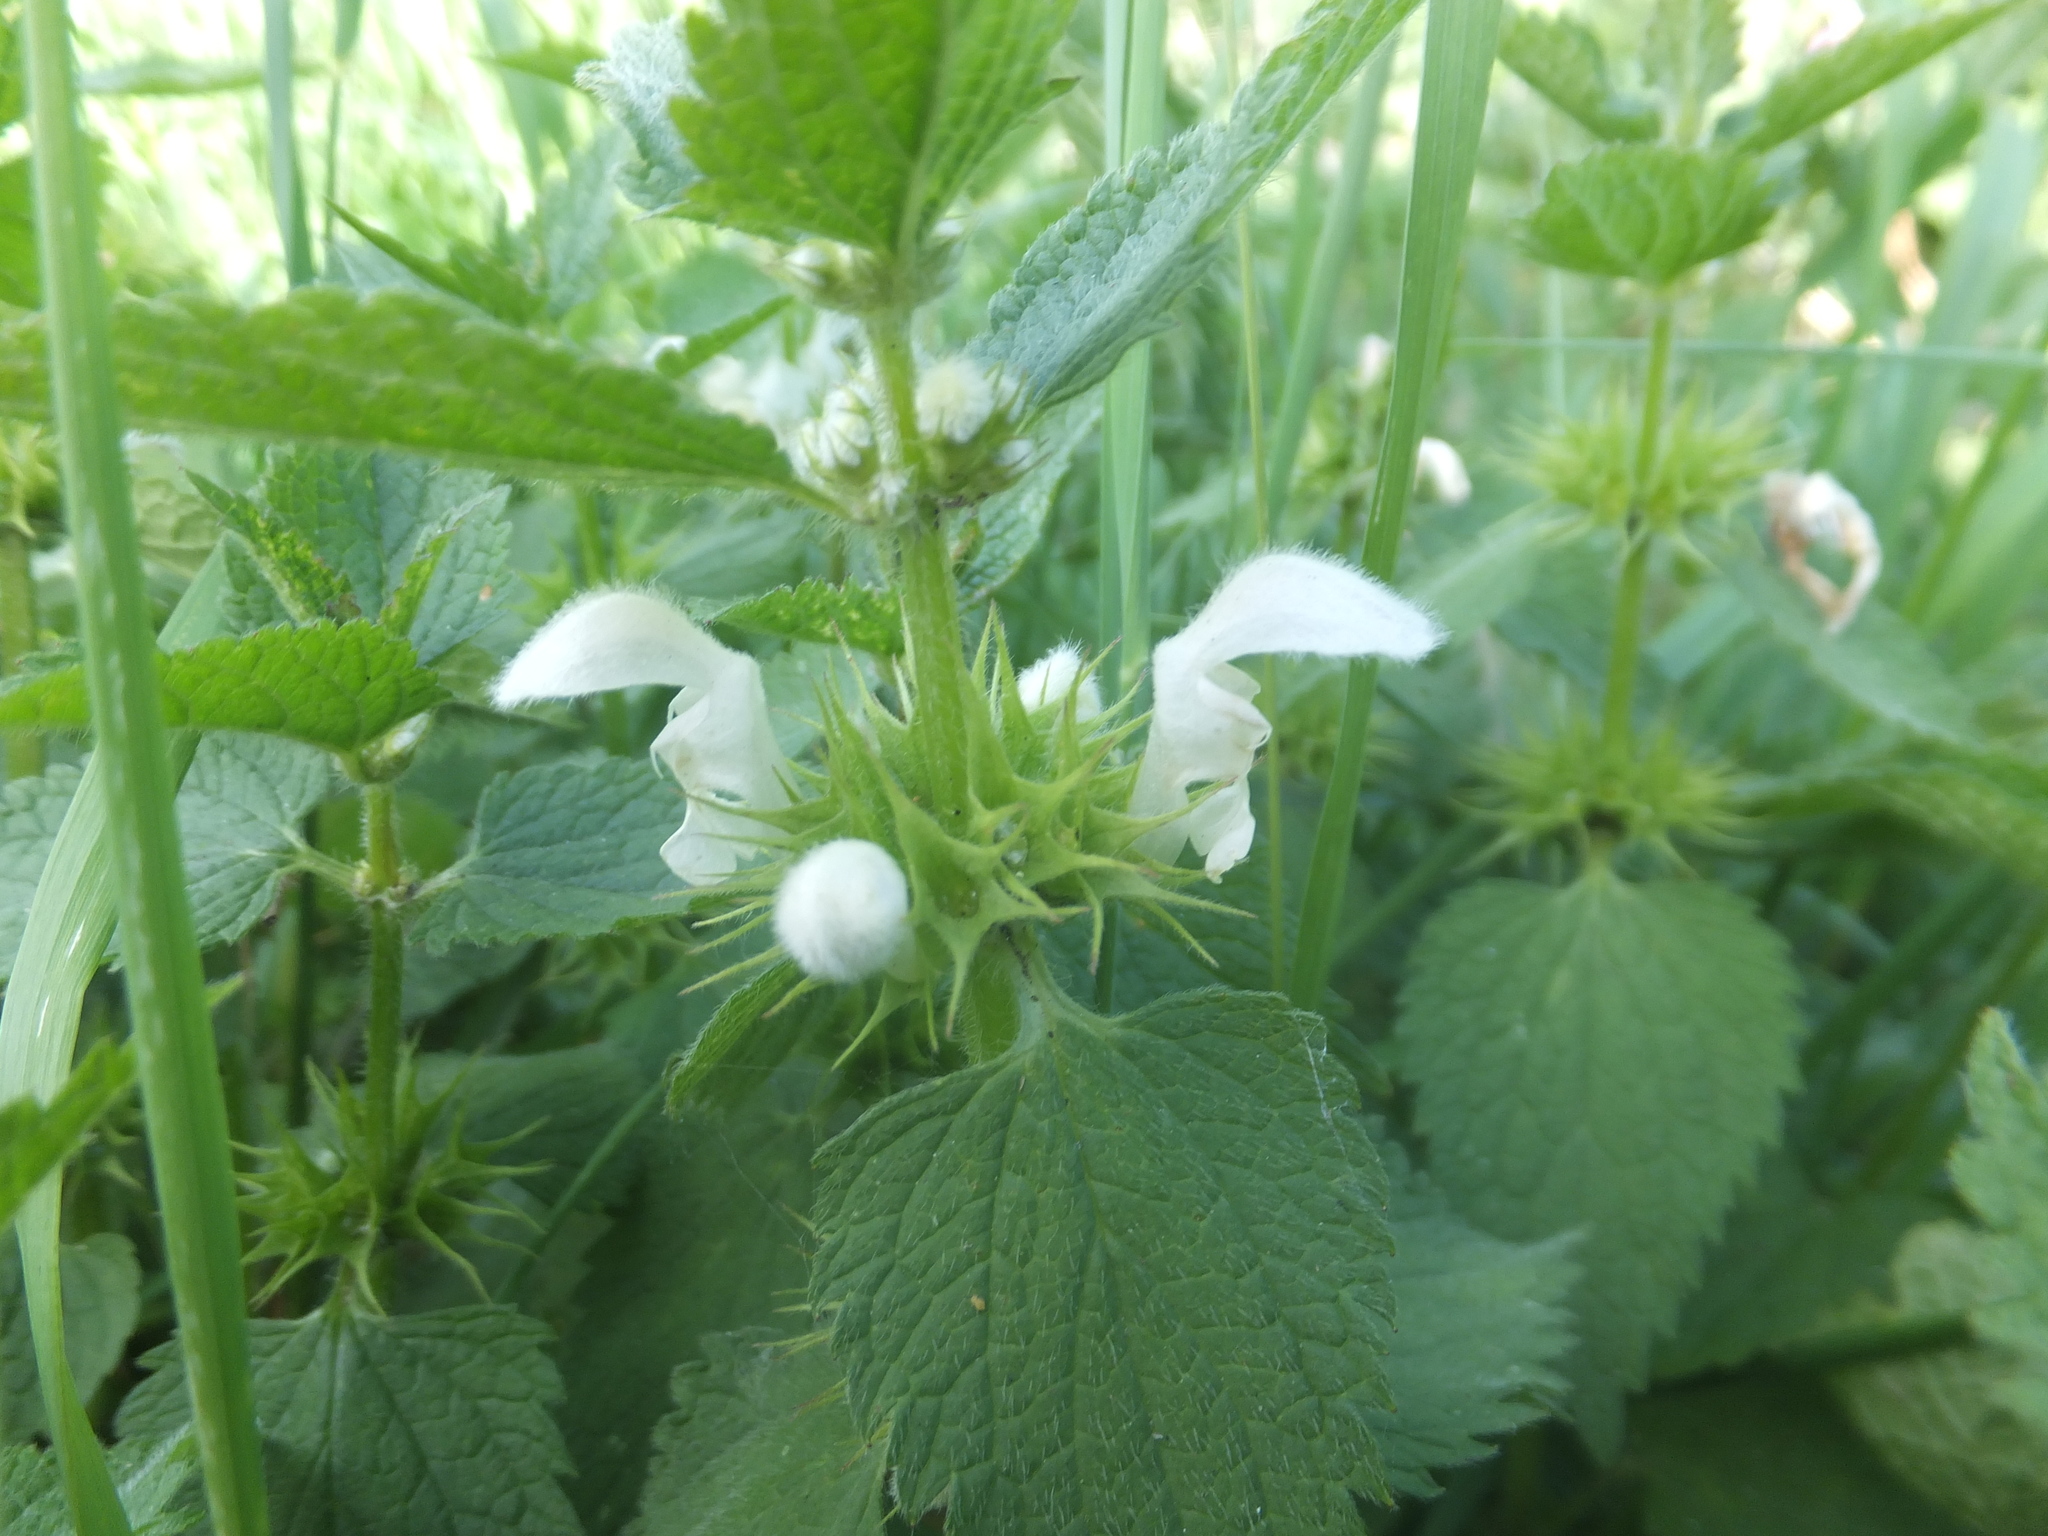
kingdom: Plantae
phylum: Tracheophyta
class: Magnoliopsida
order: Lamiales
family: Lamiaceae
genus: Lamium
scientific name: Lamium album
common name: White dead-nettle
